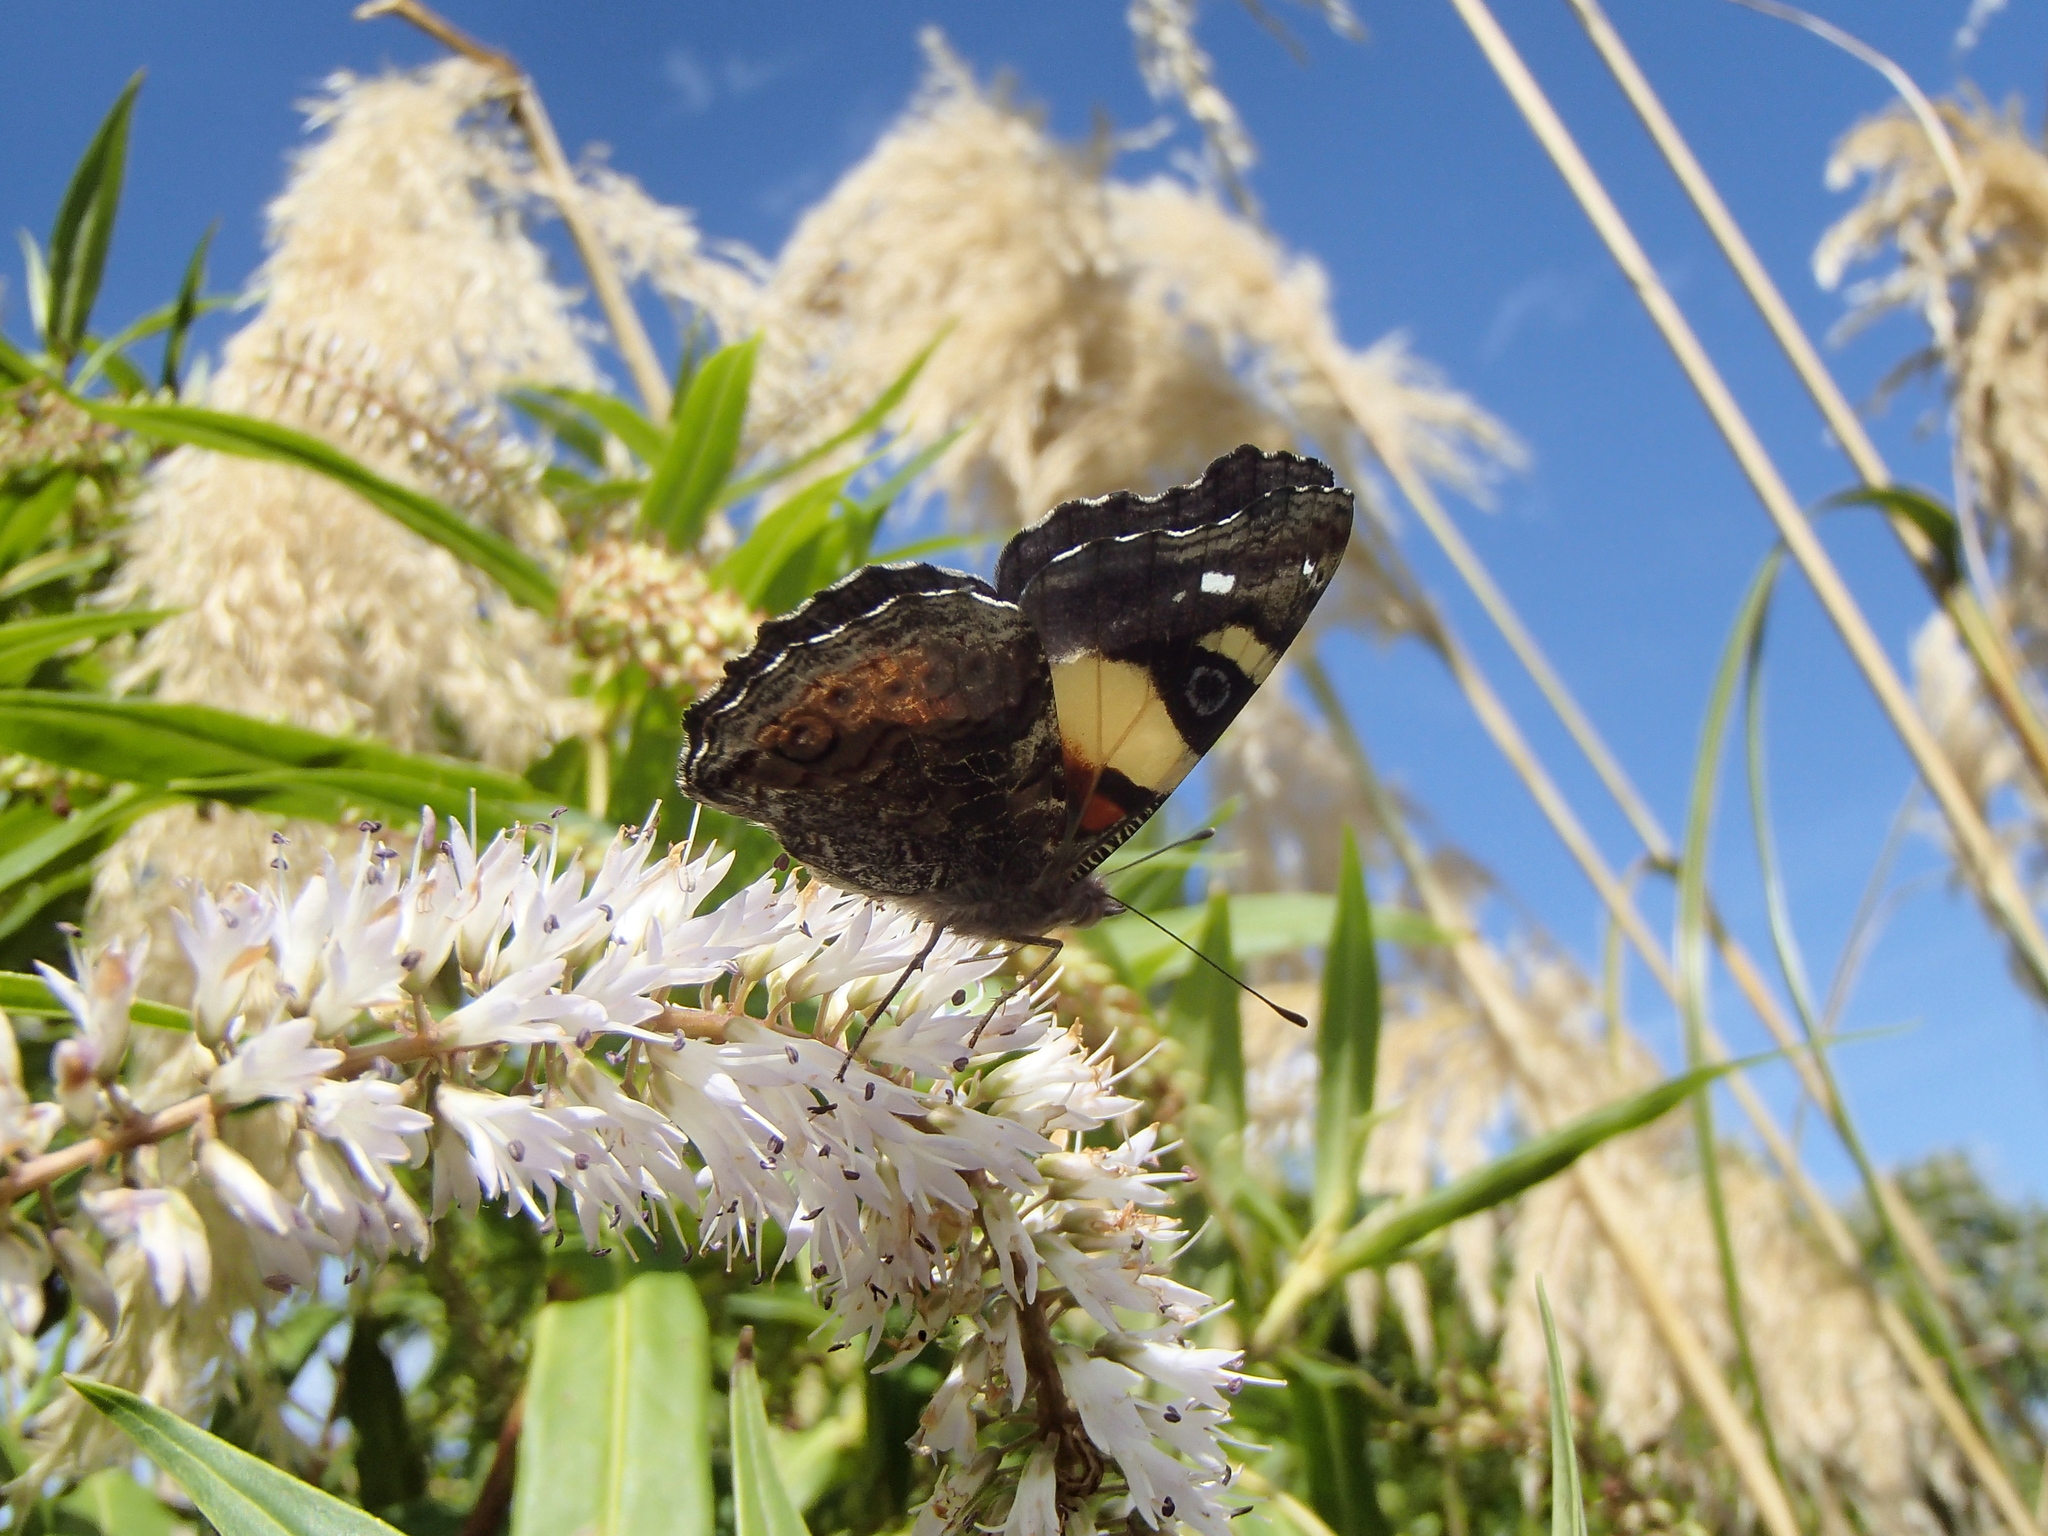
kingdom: Animalia
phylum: Arthropoda
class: Insecta
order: Lepidoptera
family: Nymphalidae
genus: Vanessa
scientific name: Vanessa itea
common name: Yellow admiral
